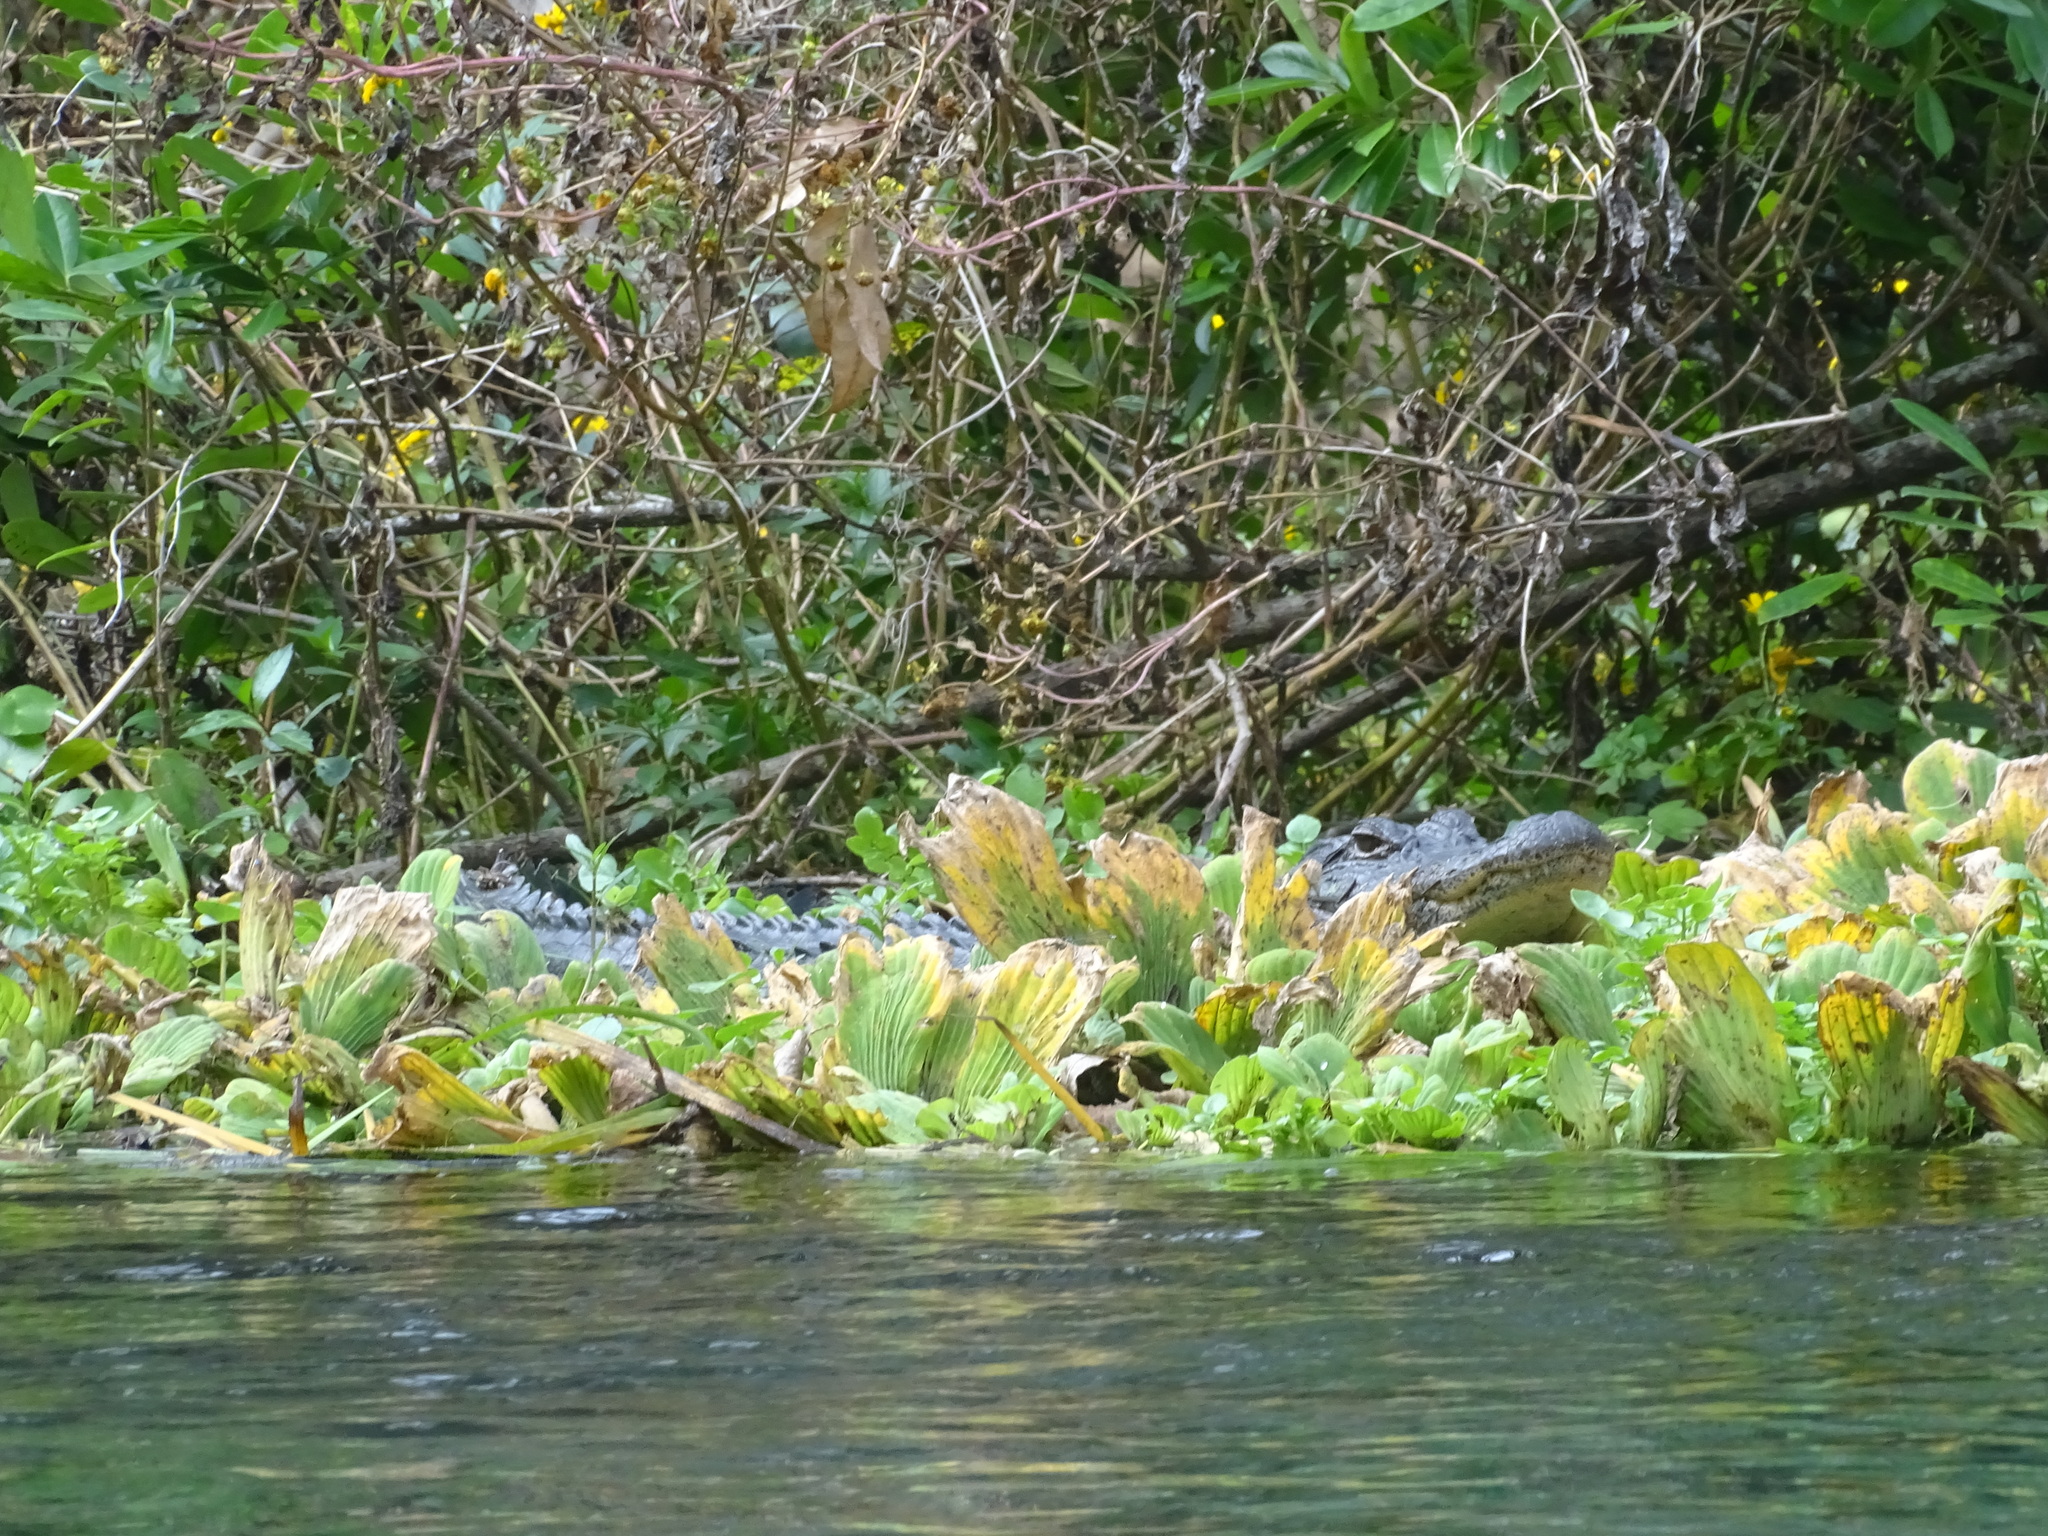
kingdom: Animalia
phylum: Chordata
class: Crocodylia
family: Alligatoridae
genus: Alligator
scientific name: Alligator mississippiensis
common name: American alligator
